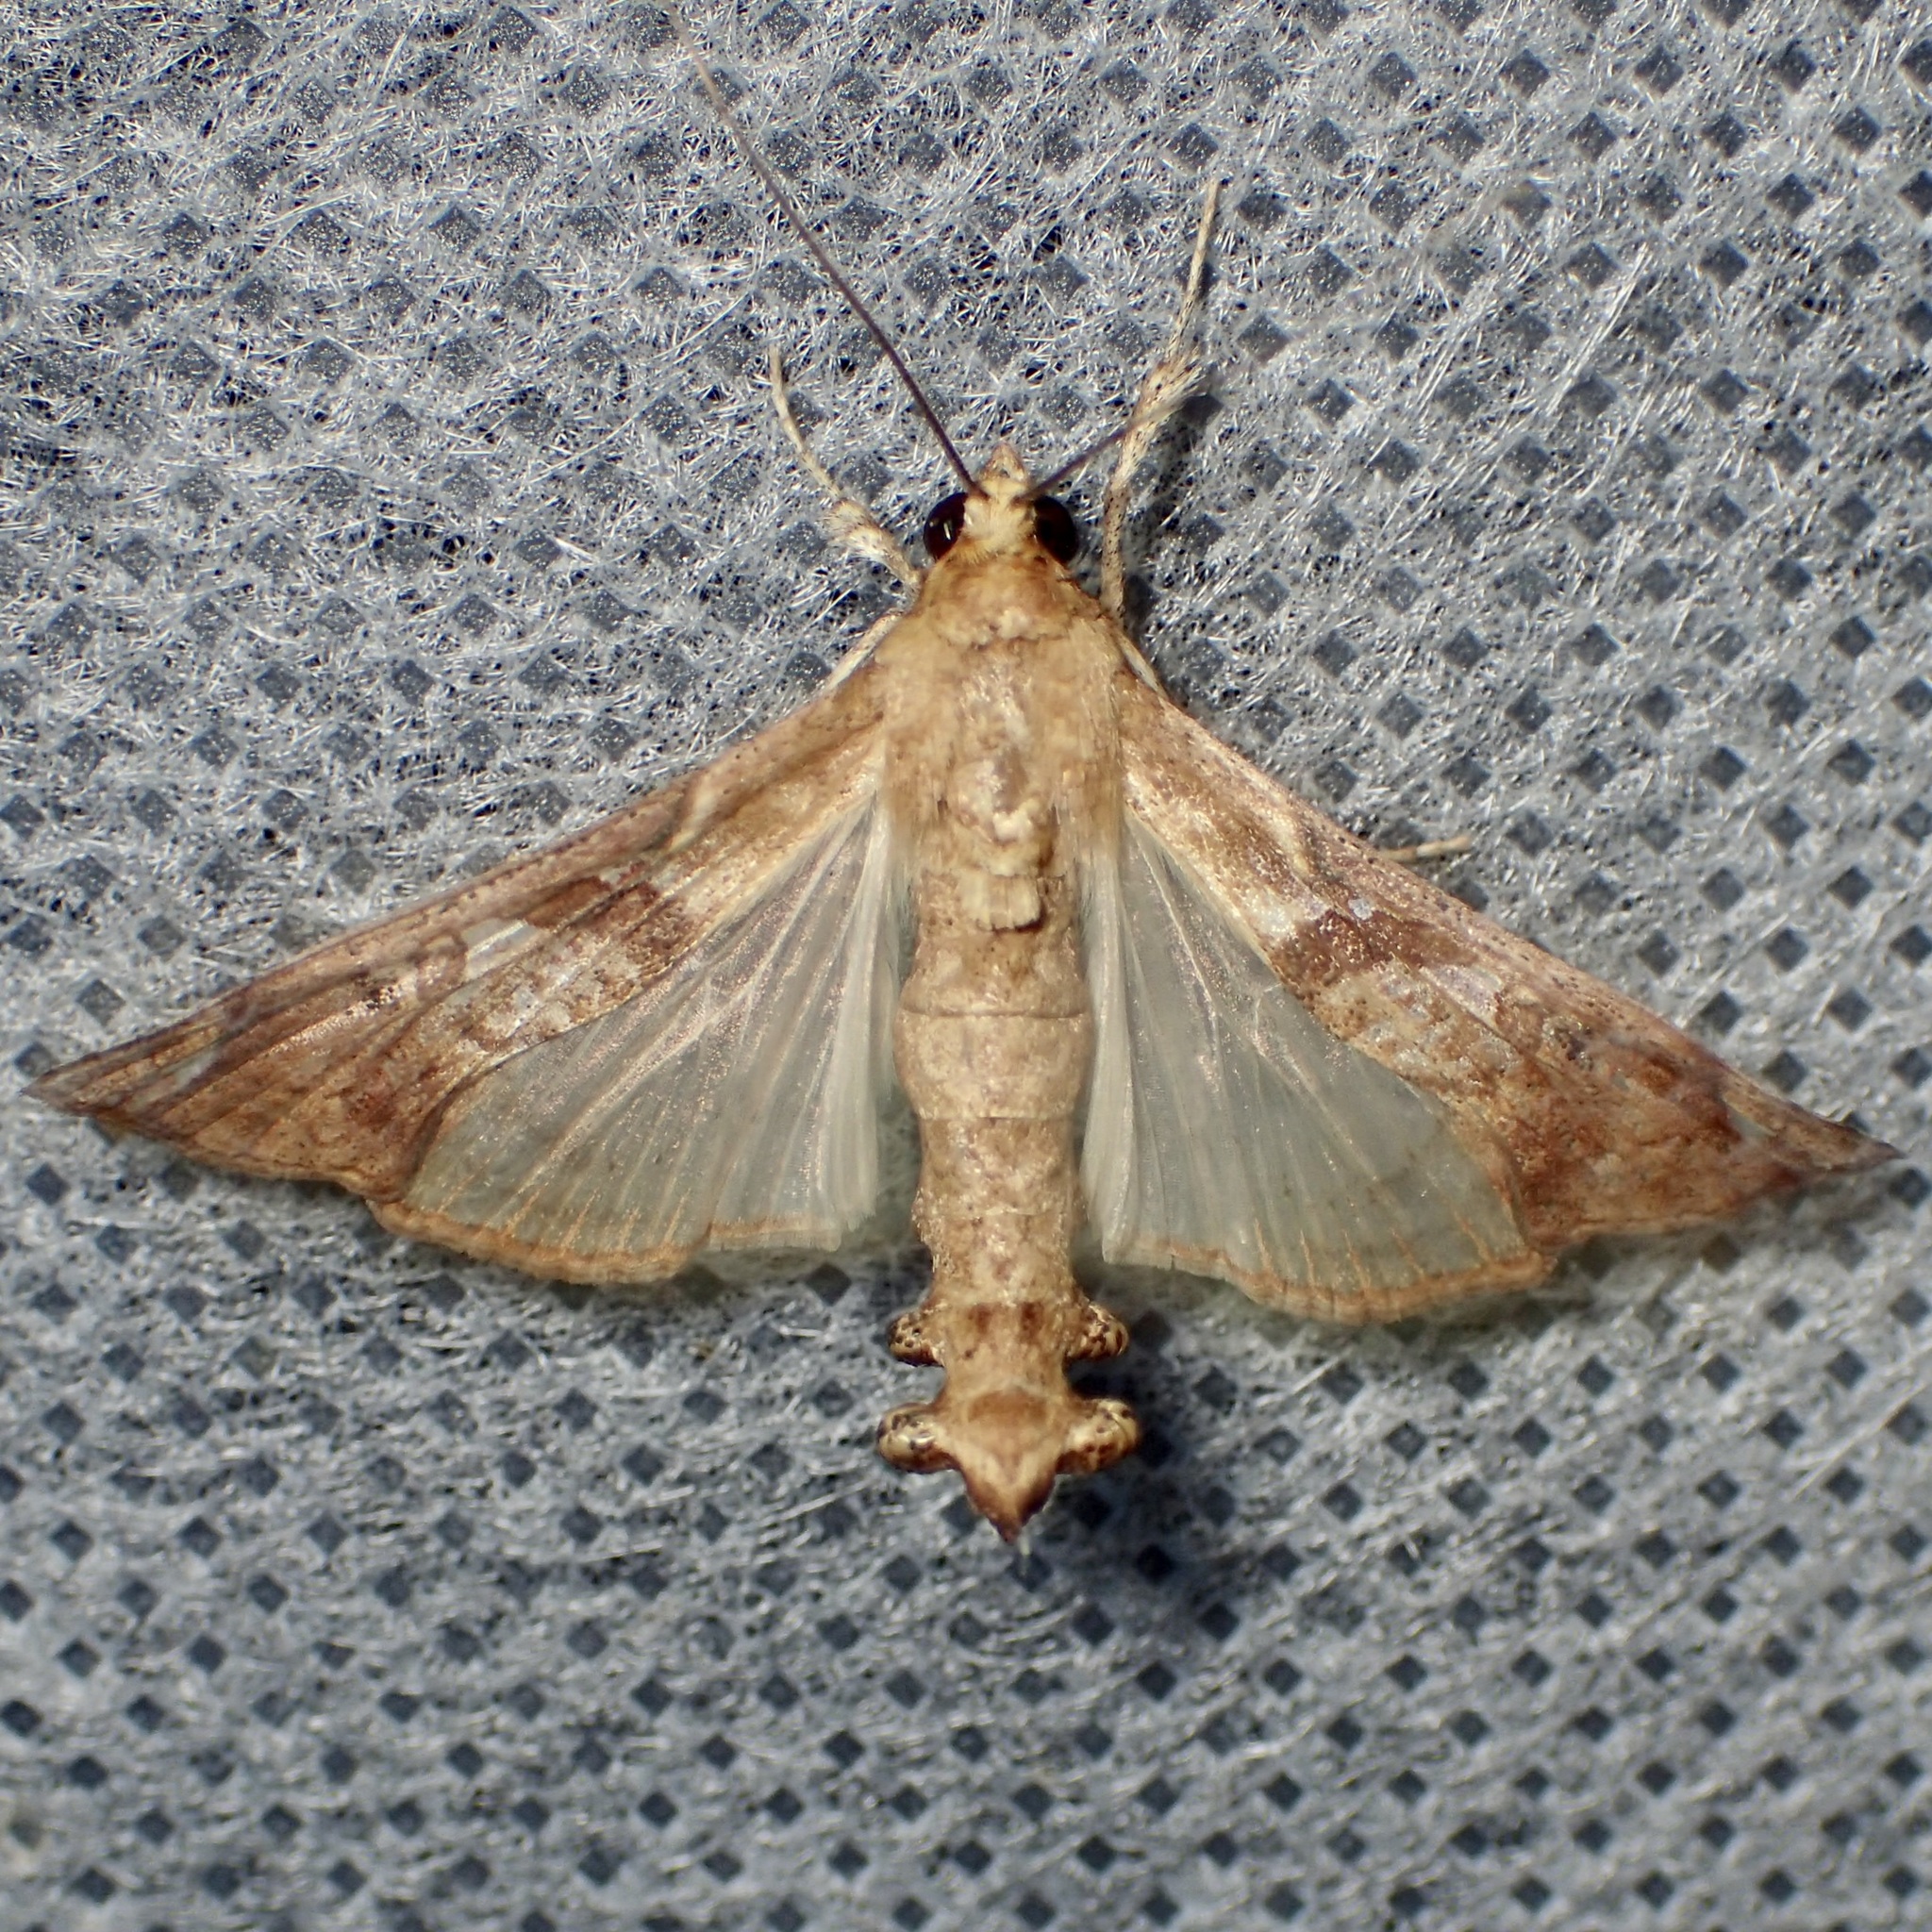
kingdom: Animalia
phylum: Arthropoda
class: Insecta
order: Lepidoptera
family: Crambidae
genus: Terastia
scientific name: Terastia meticulosalis
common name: Moth
